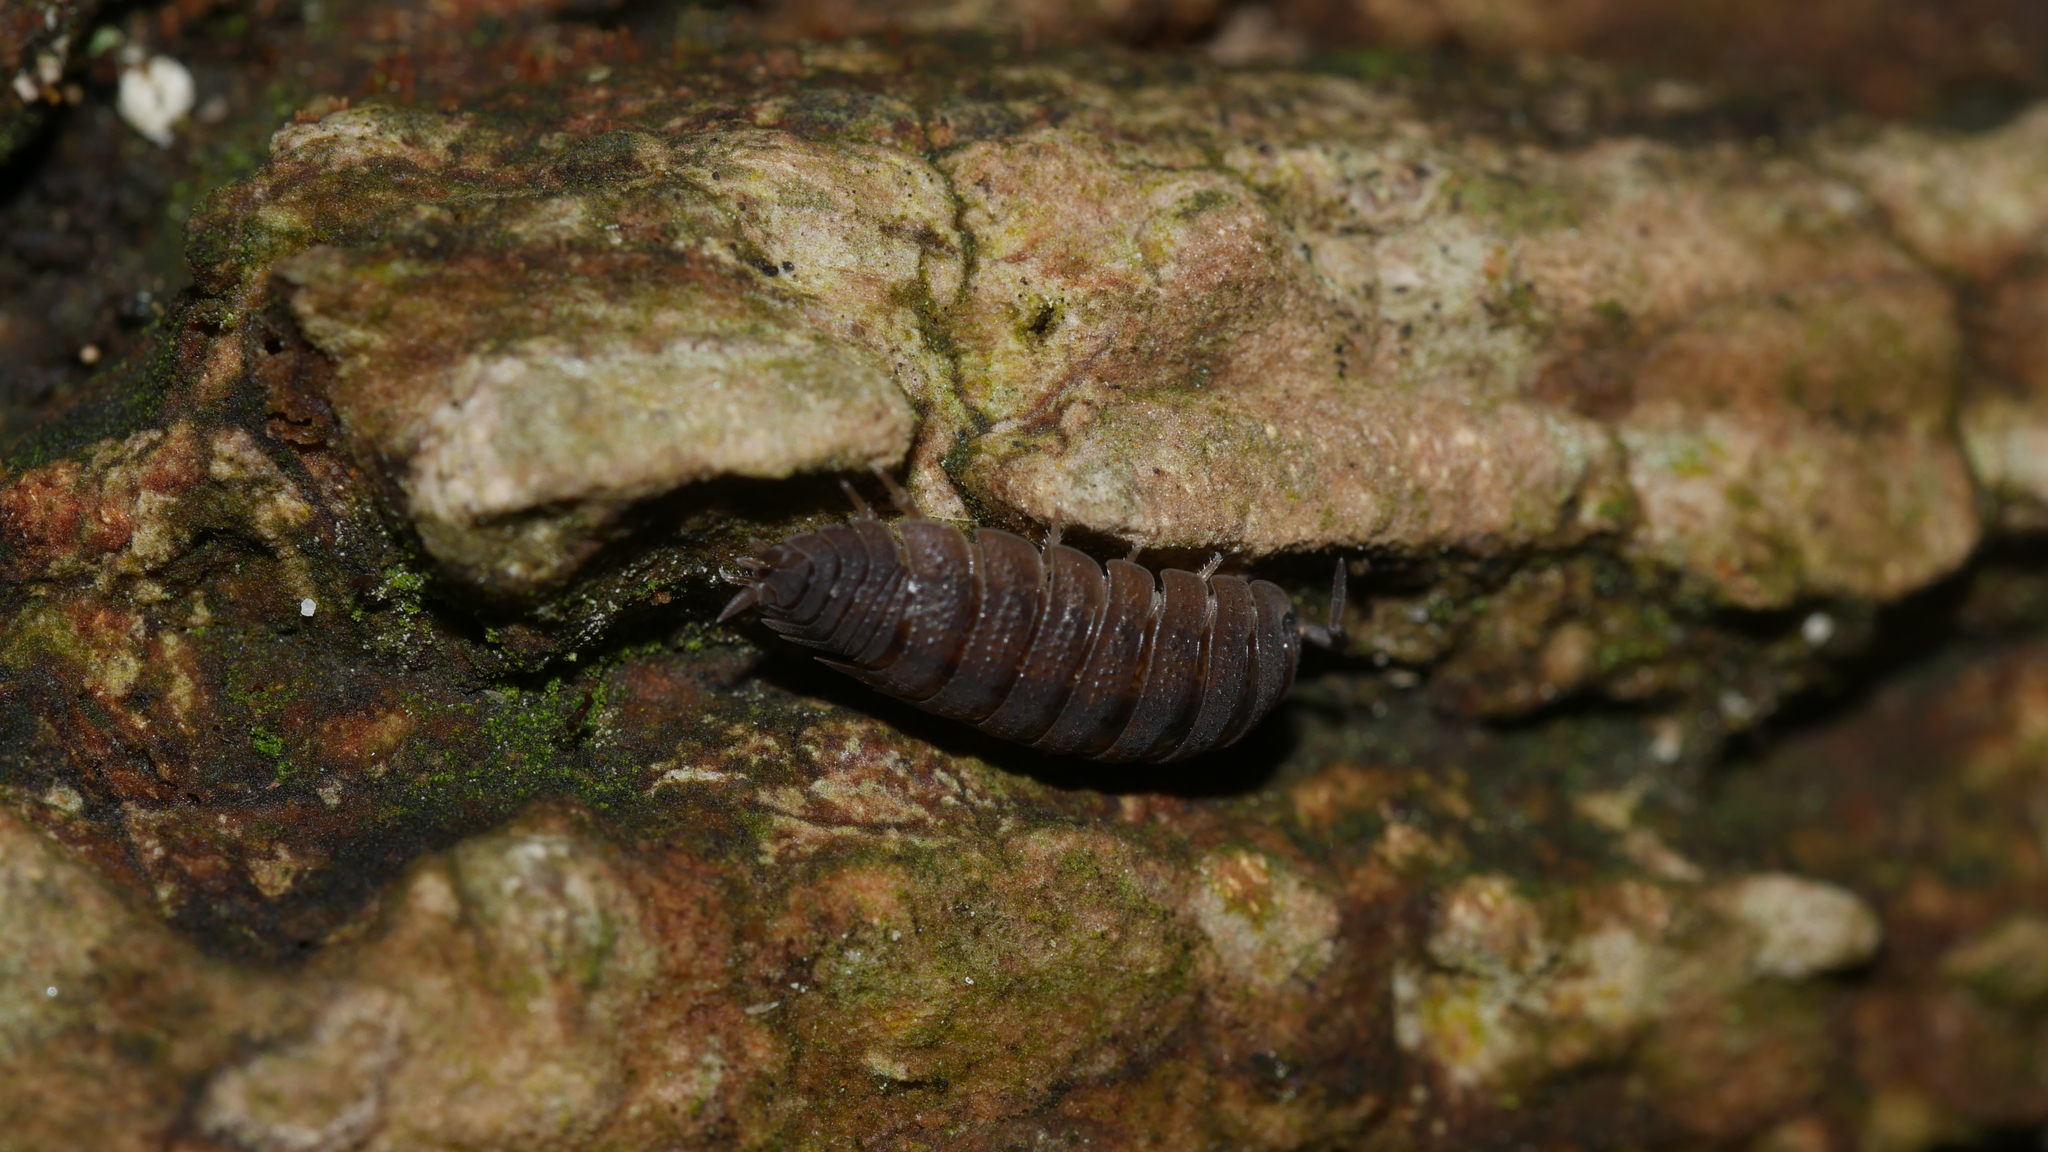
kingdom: Animalia
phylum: Arthropoda
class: Malacostraca
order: Isopoda
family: Porcellionidae
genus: Porcellio
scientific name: Porcellio scaber
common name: Common rough woodlouse
